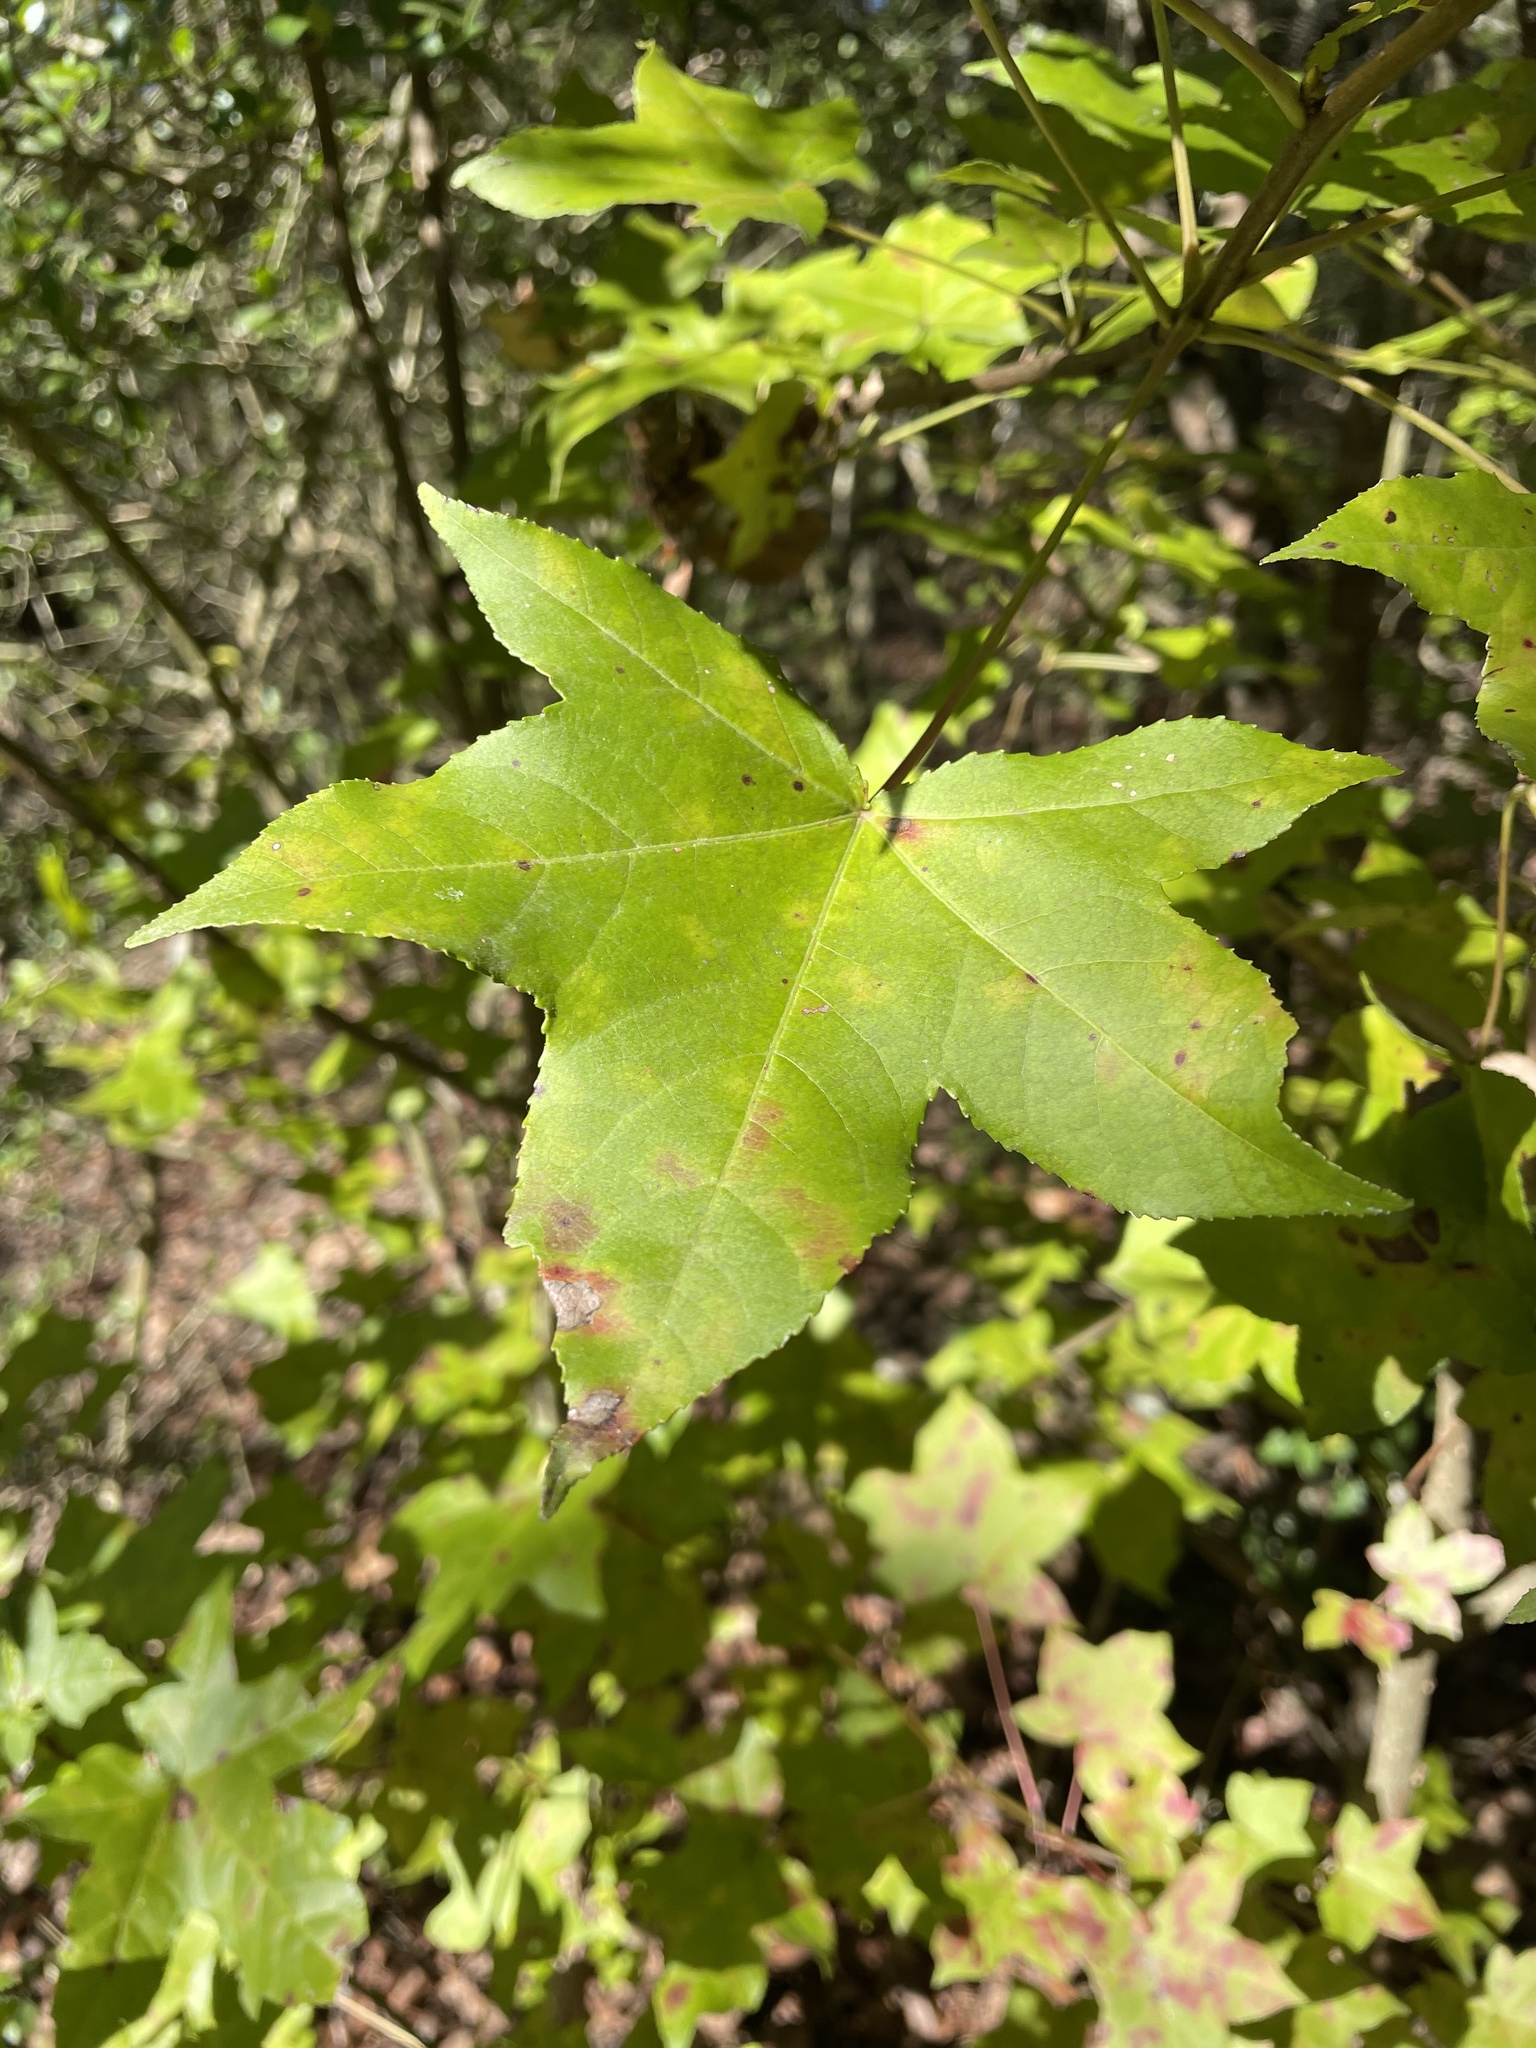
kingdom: Plantae
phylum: Tracheophyta
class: Magnoliopsida
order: Saxifragales
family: Altingiaceae
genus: Liquidambar
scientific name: Liquidambar styraciflua
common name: Sweet gum
